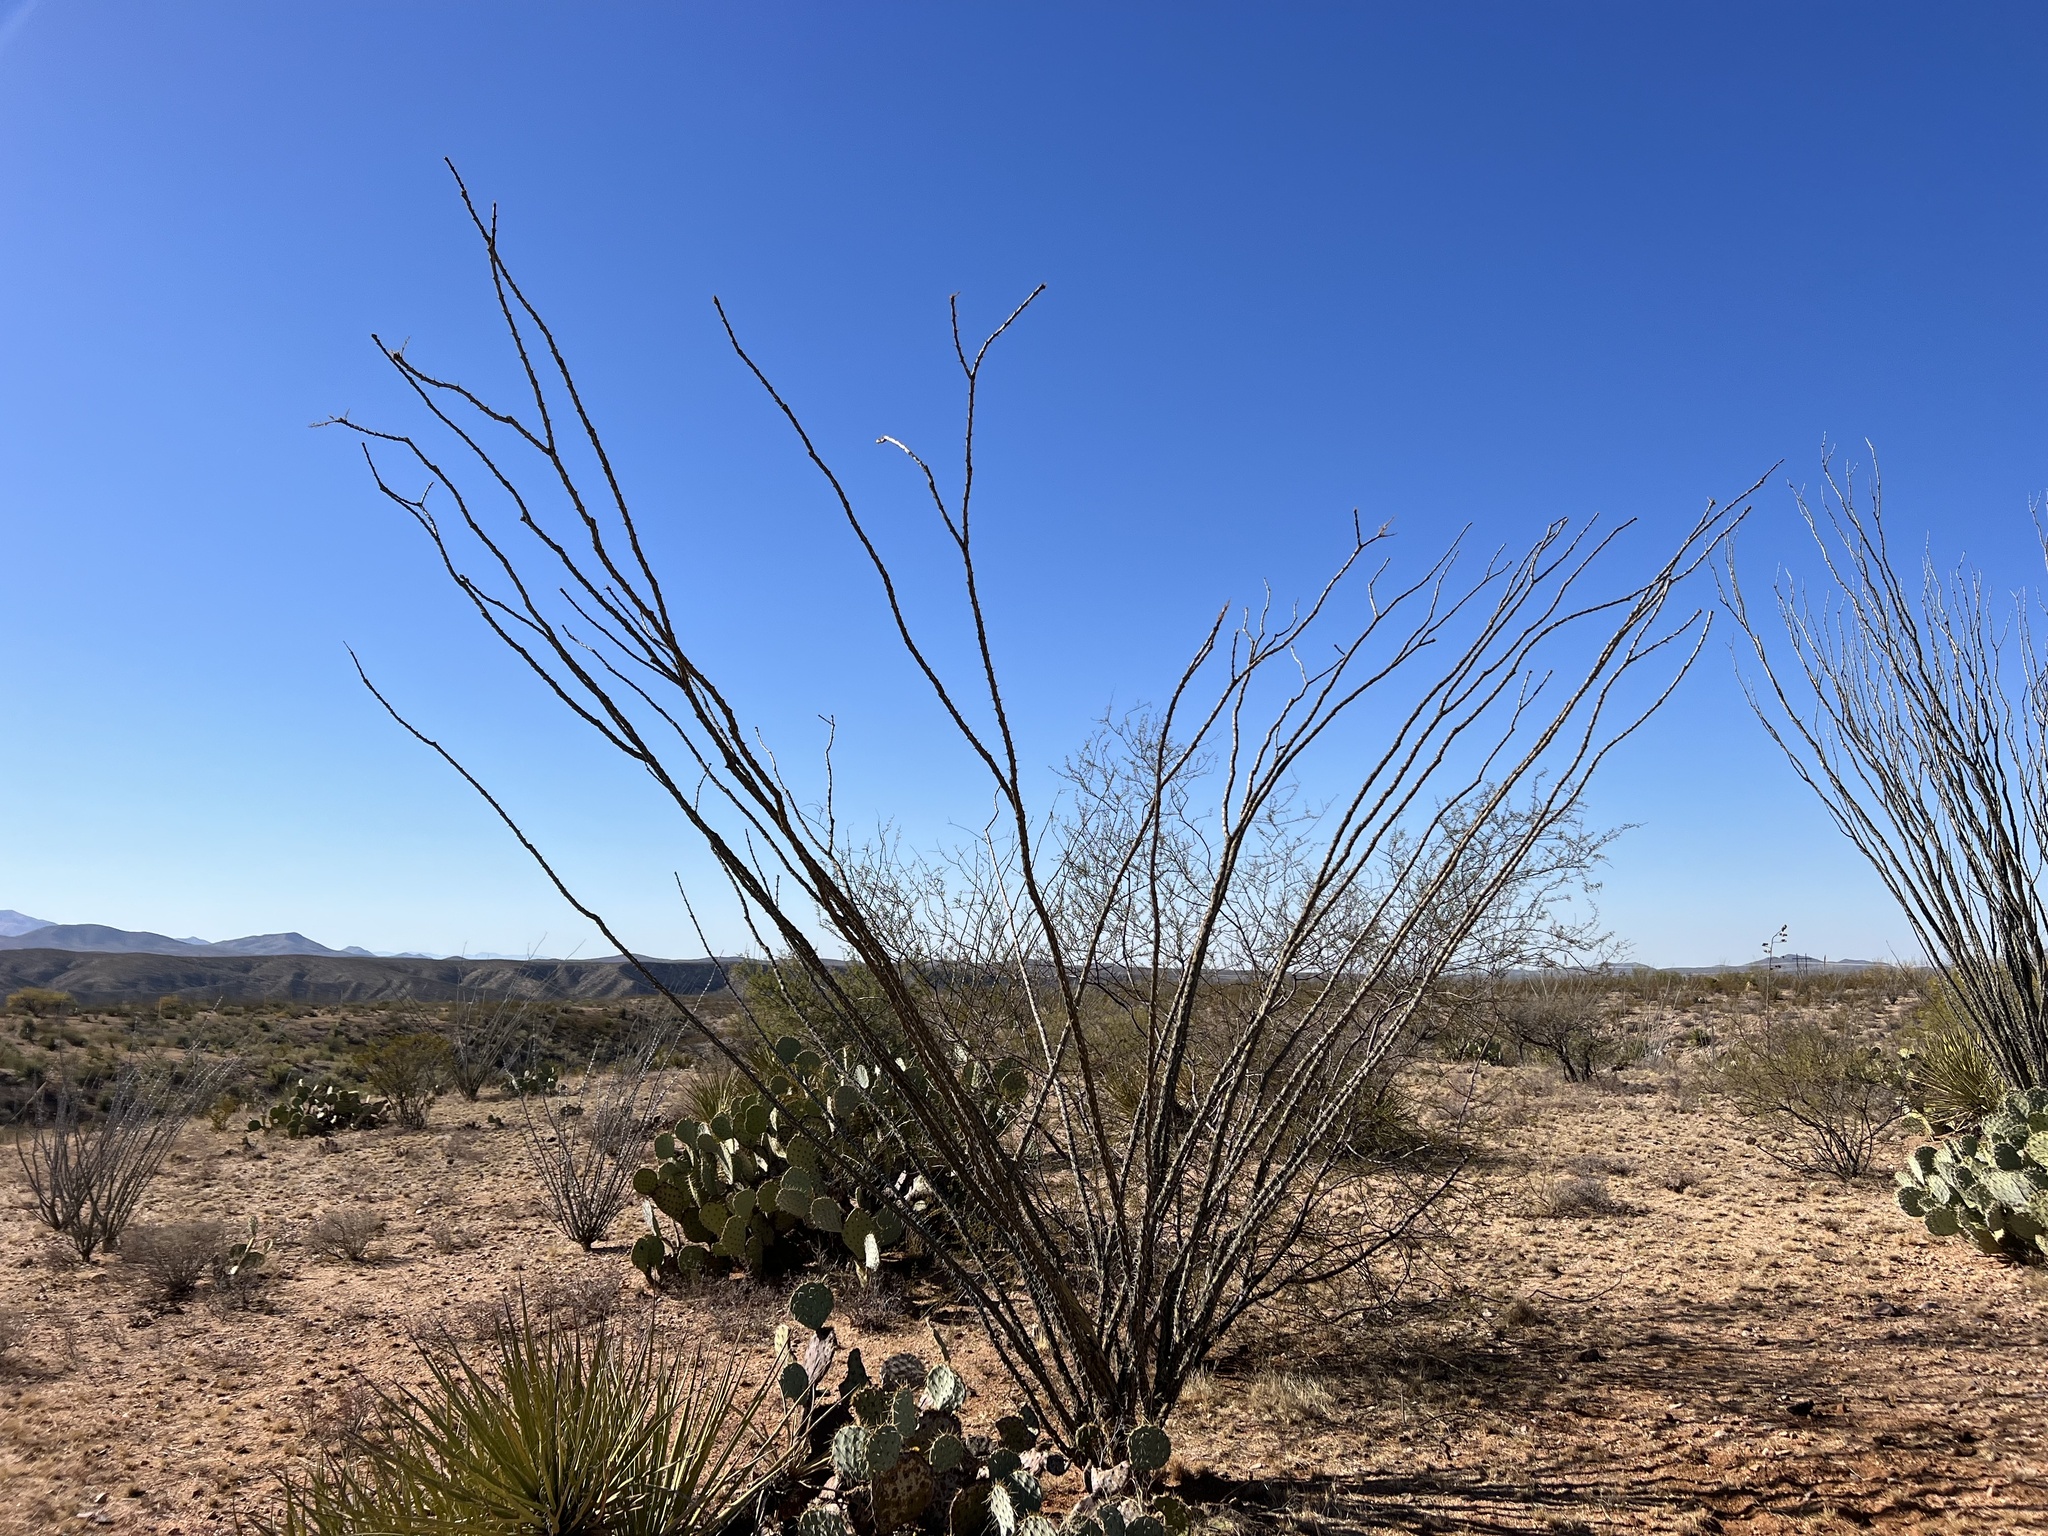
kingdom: Plantae
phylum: Tracheophyta
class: Magnoliopsida
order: Ericales
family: Fouquieriaceae
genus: Fouquieria
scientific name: Fouquieria splendens
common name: Vine-cactus
